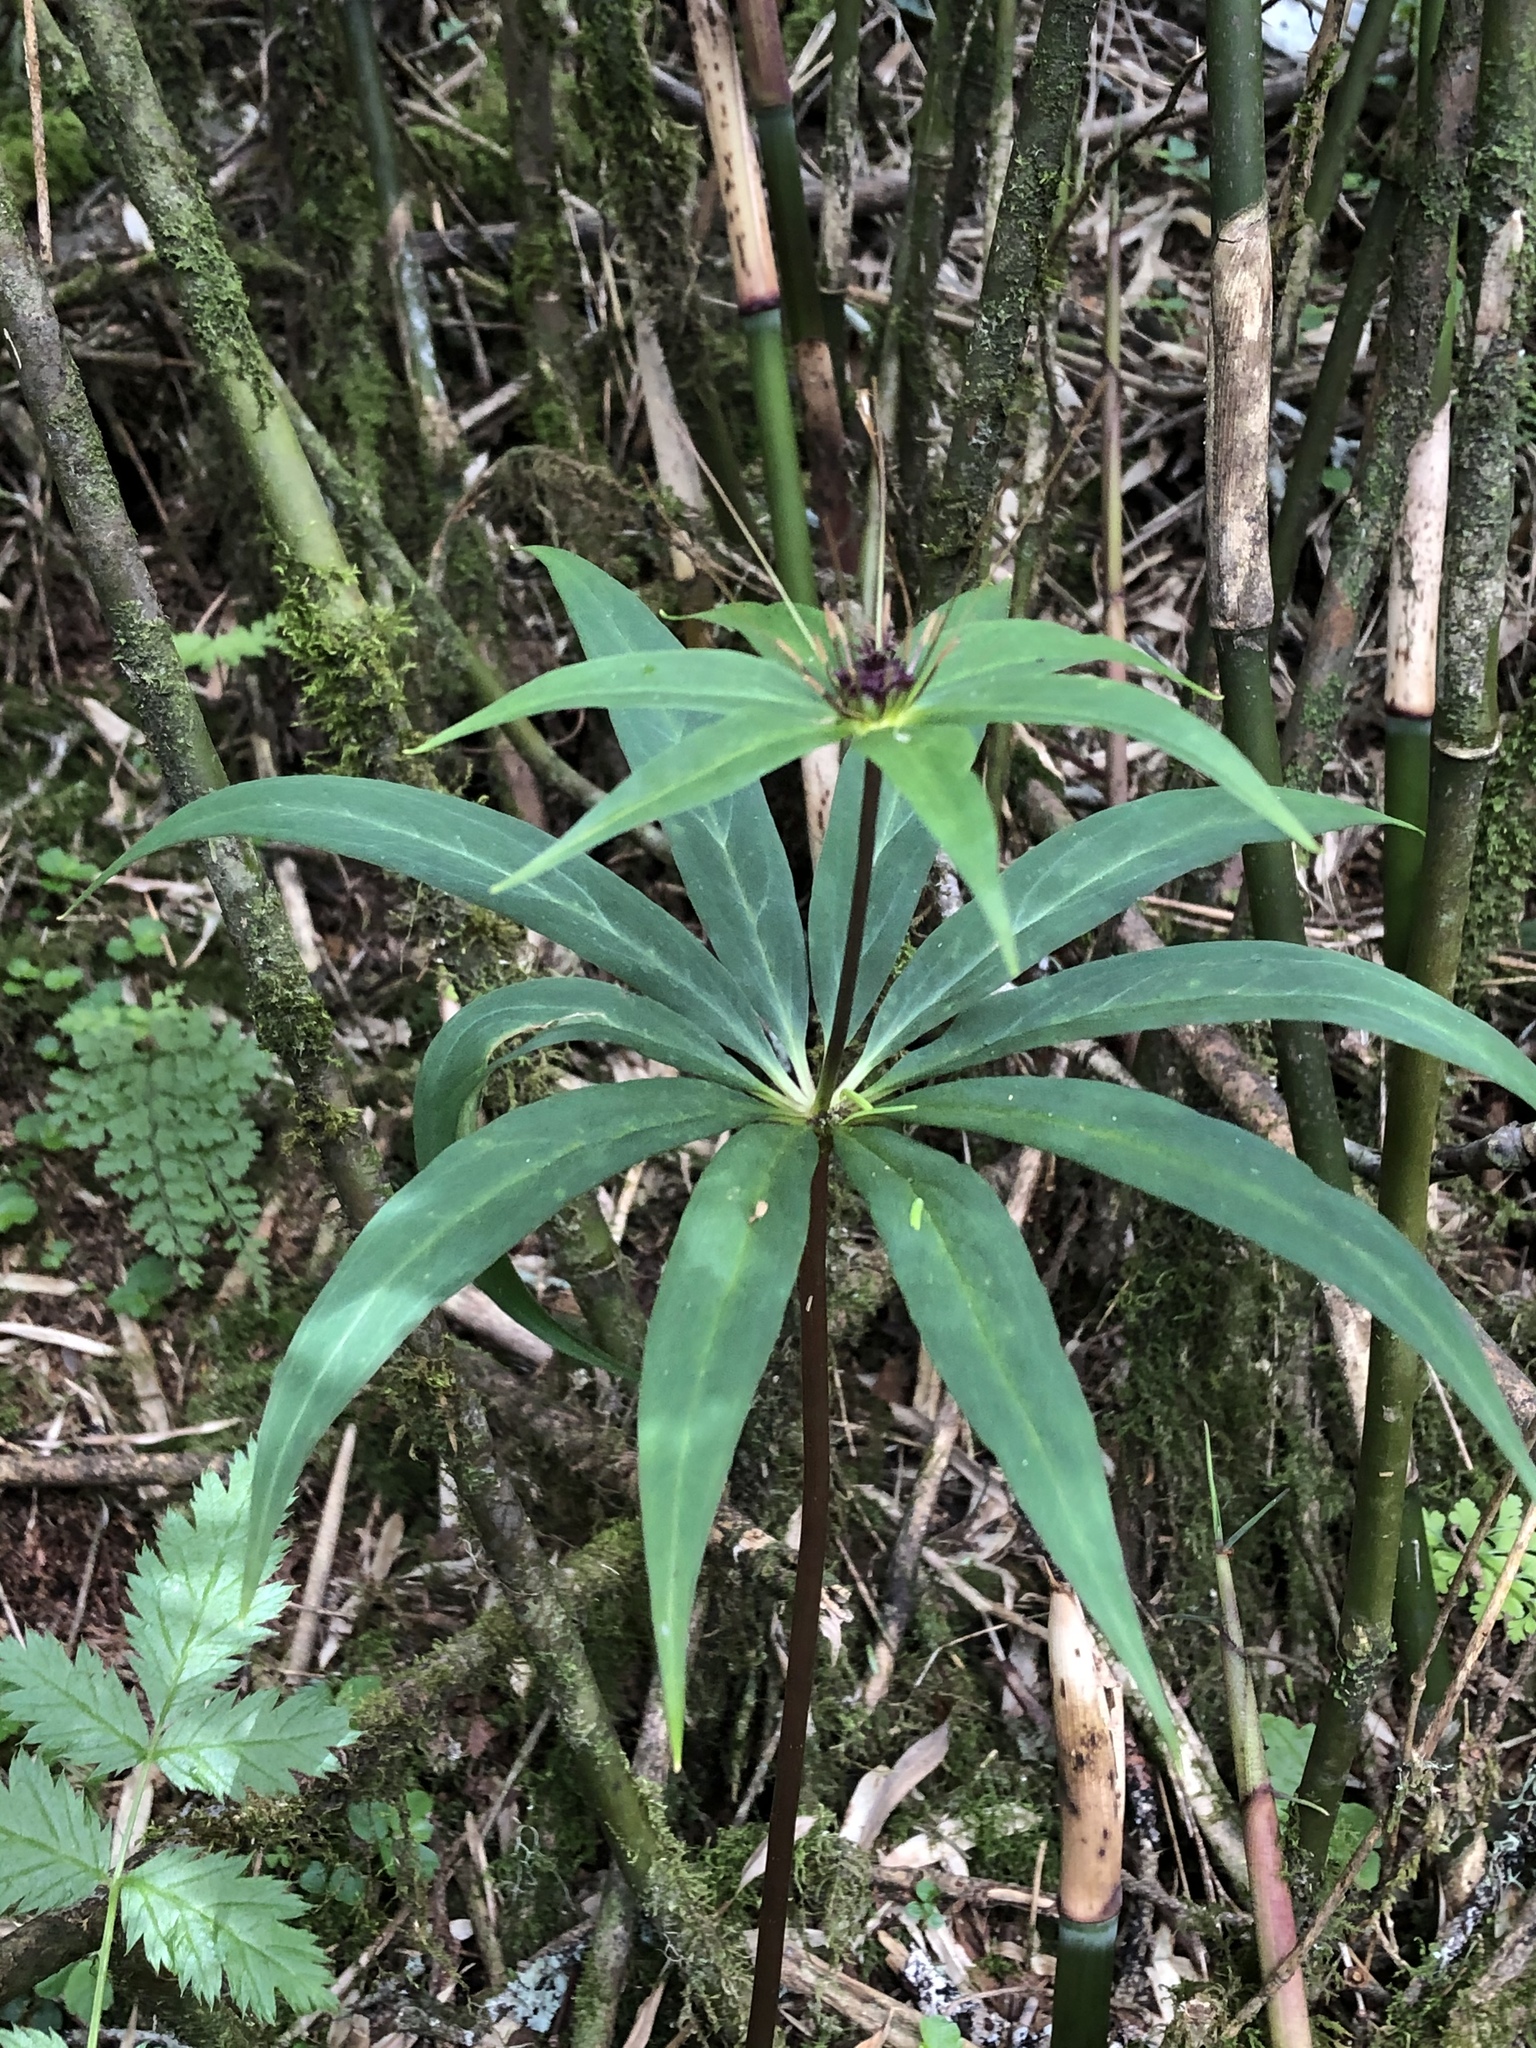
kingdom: Plantae
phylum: Tracheophyta
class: Liliopsida
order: Liliales
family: Melanthiaceae
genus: Paris
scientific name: Paris lancifolia
